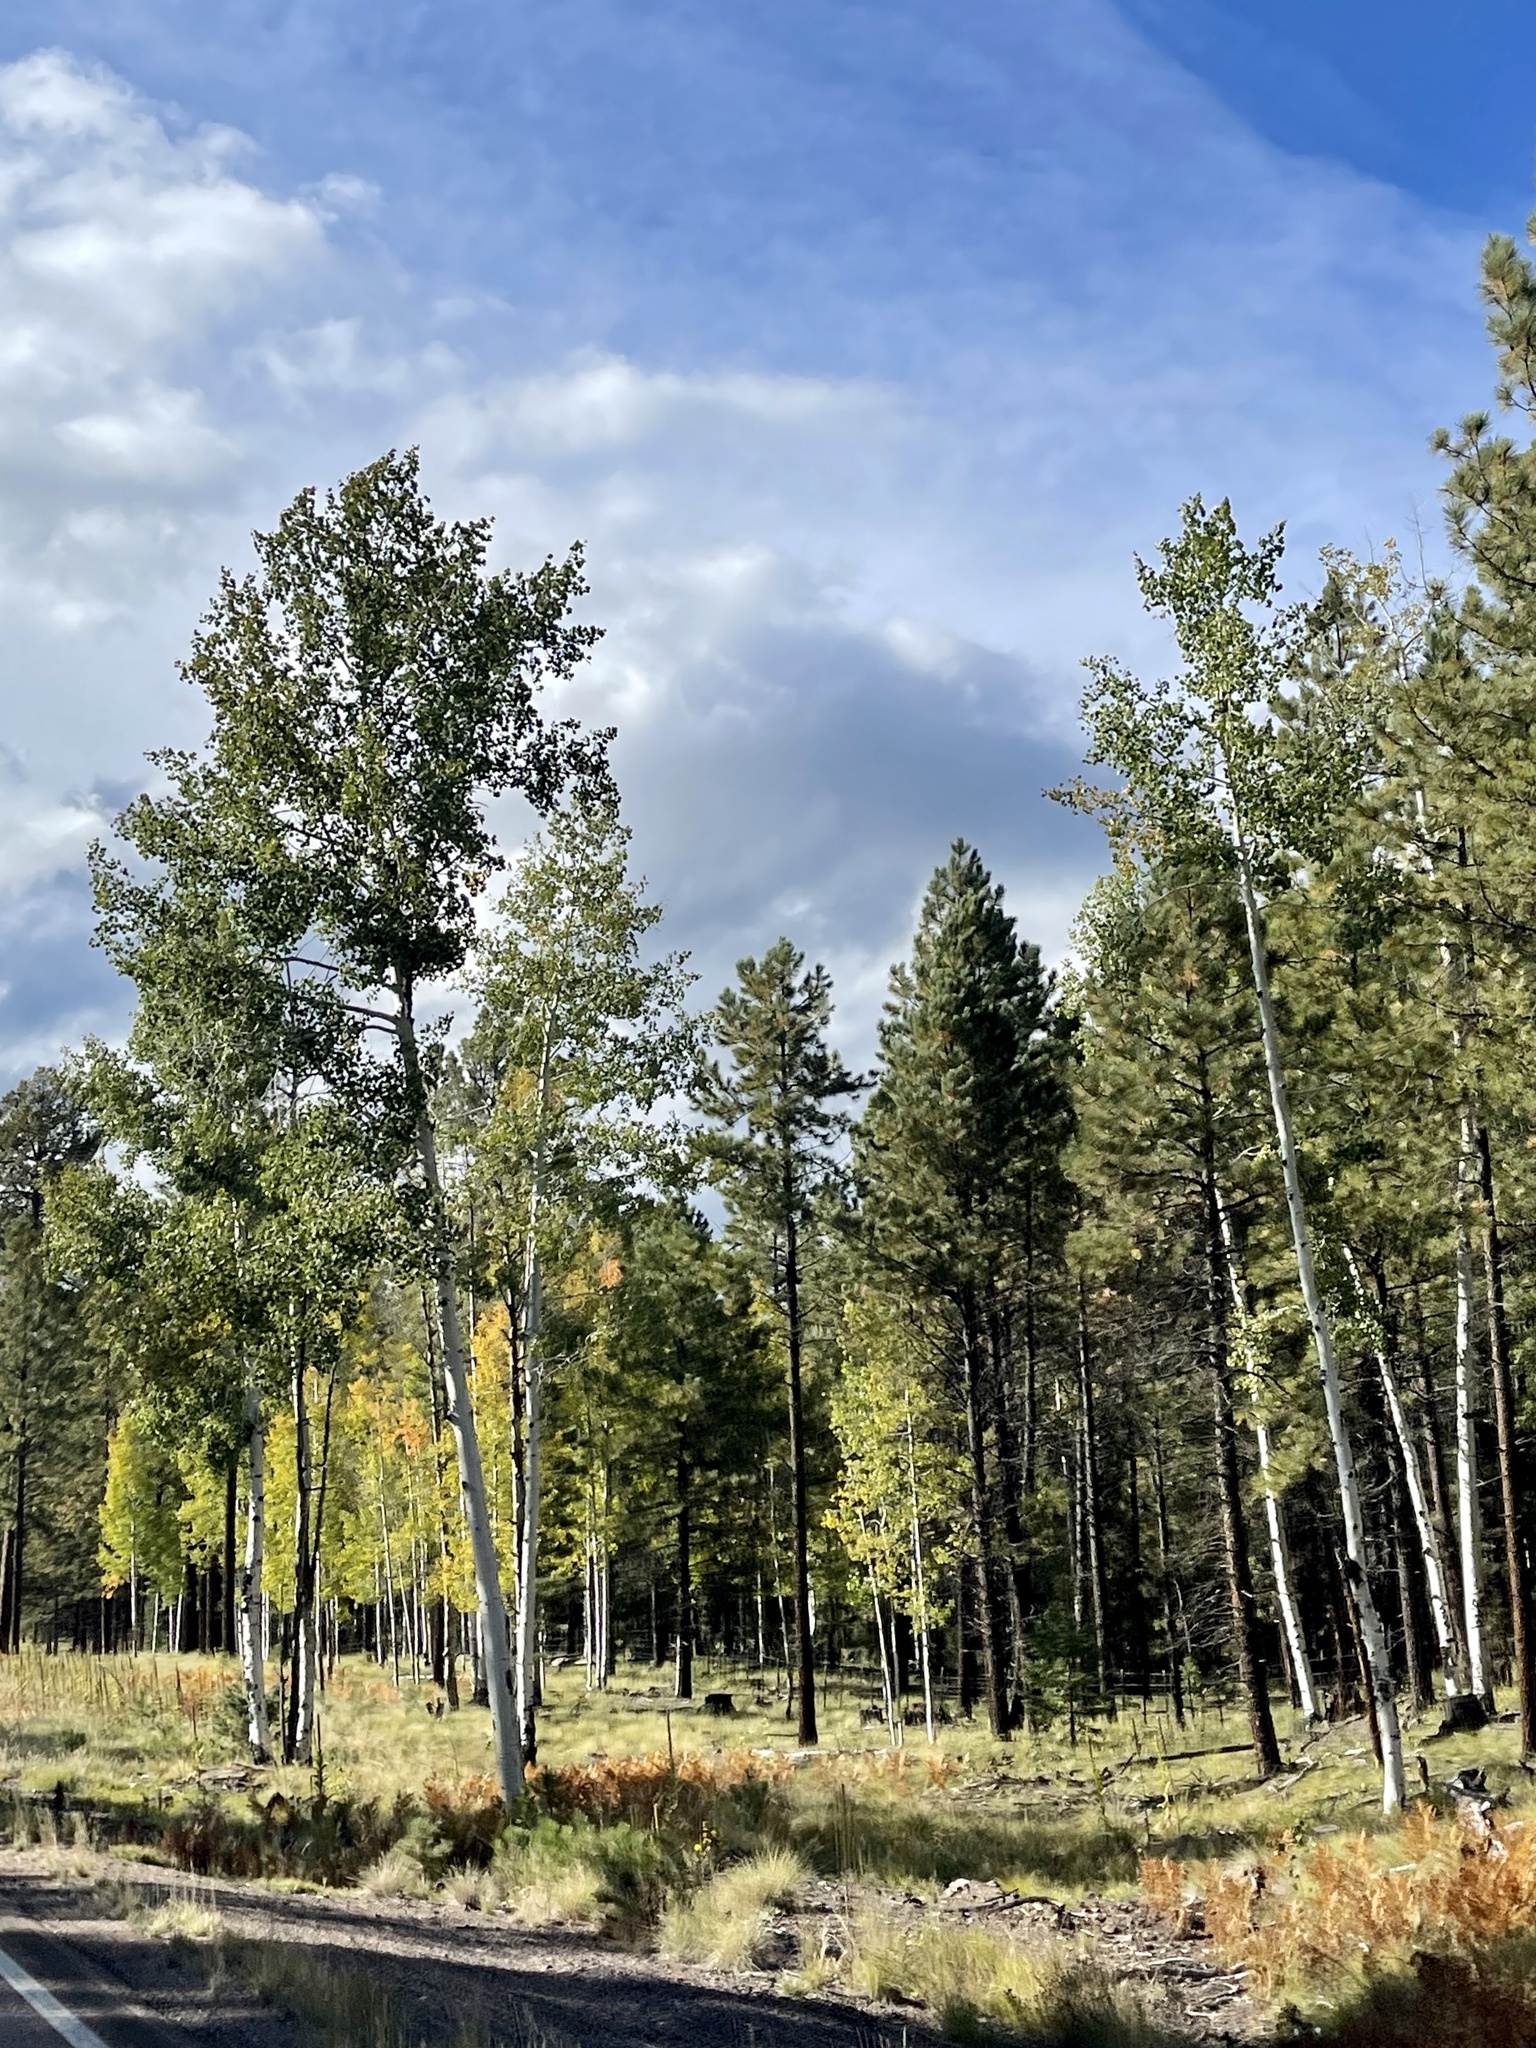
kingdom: Plantae
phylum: Tracheophyta
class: Magnoliopsida
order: Malpighiales
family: Salicaceae
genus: Populus
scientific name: Populus tremuloides
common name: Quaking aspen
